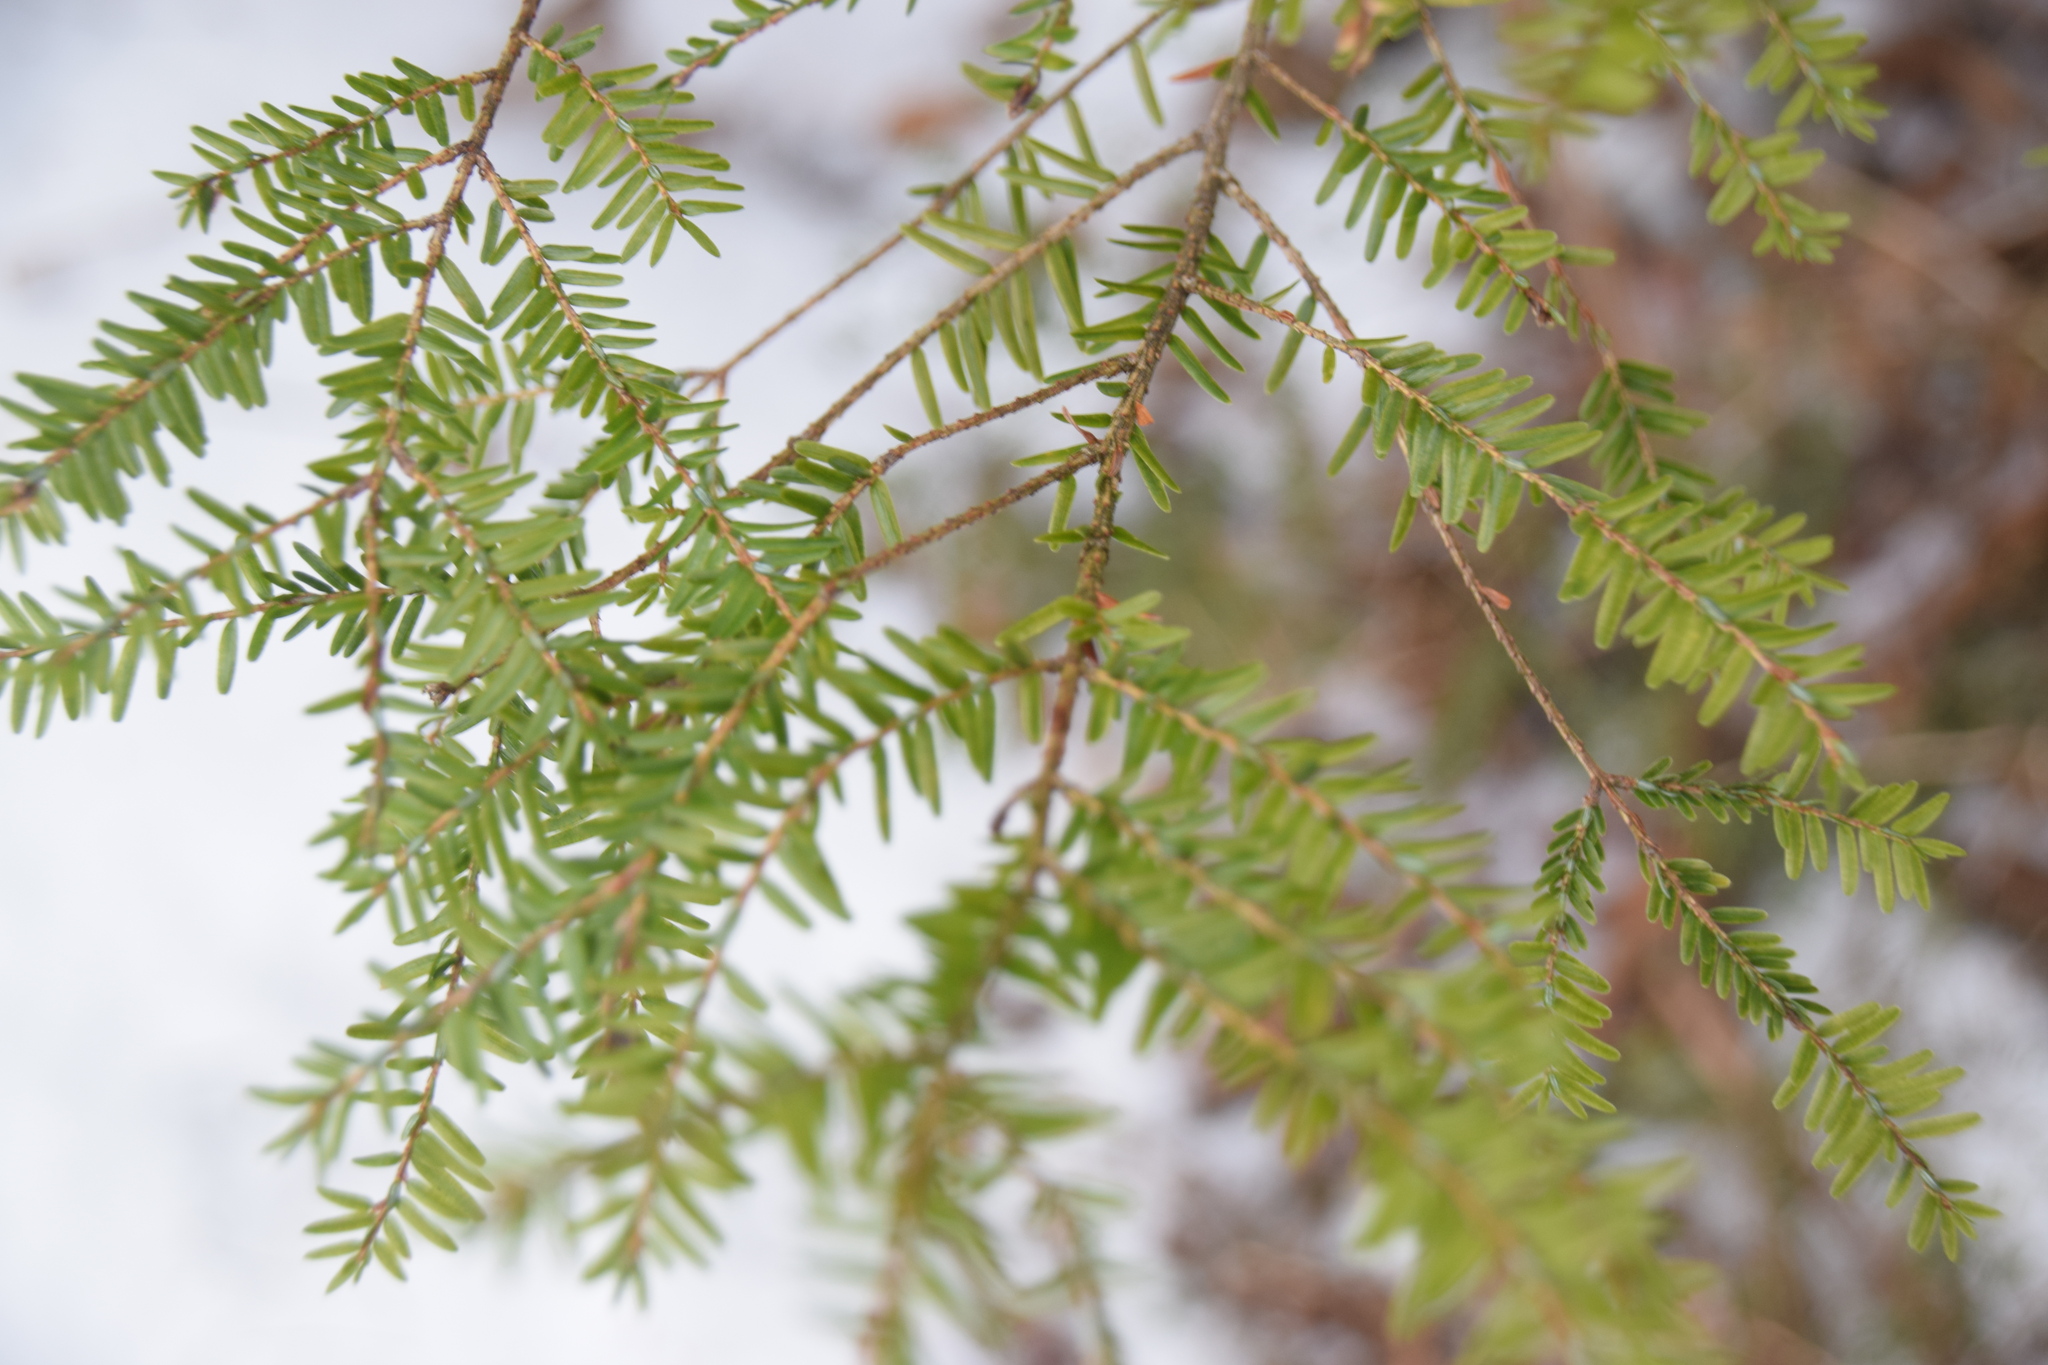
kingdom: Plantae
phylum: Tracheophyta
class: Pinopsida
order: Pinales
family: Pinaceae
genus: Tsuga
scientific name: Tsuga canadensis
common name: Eastern hemlock
